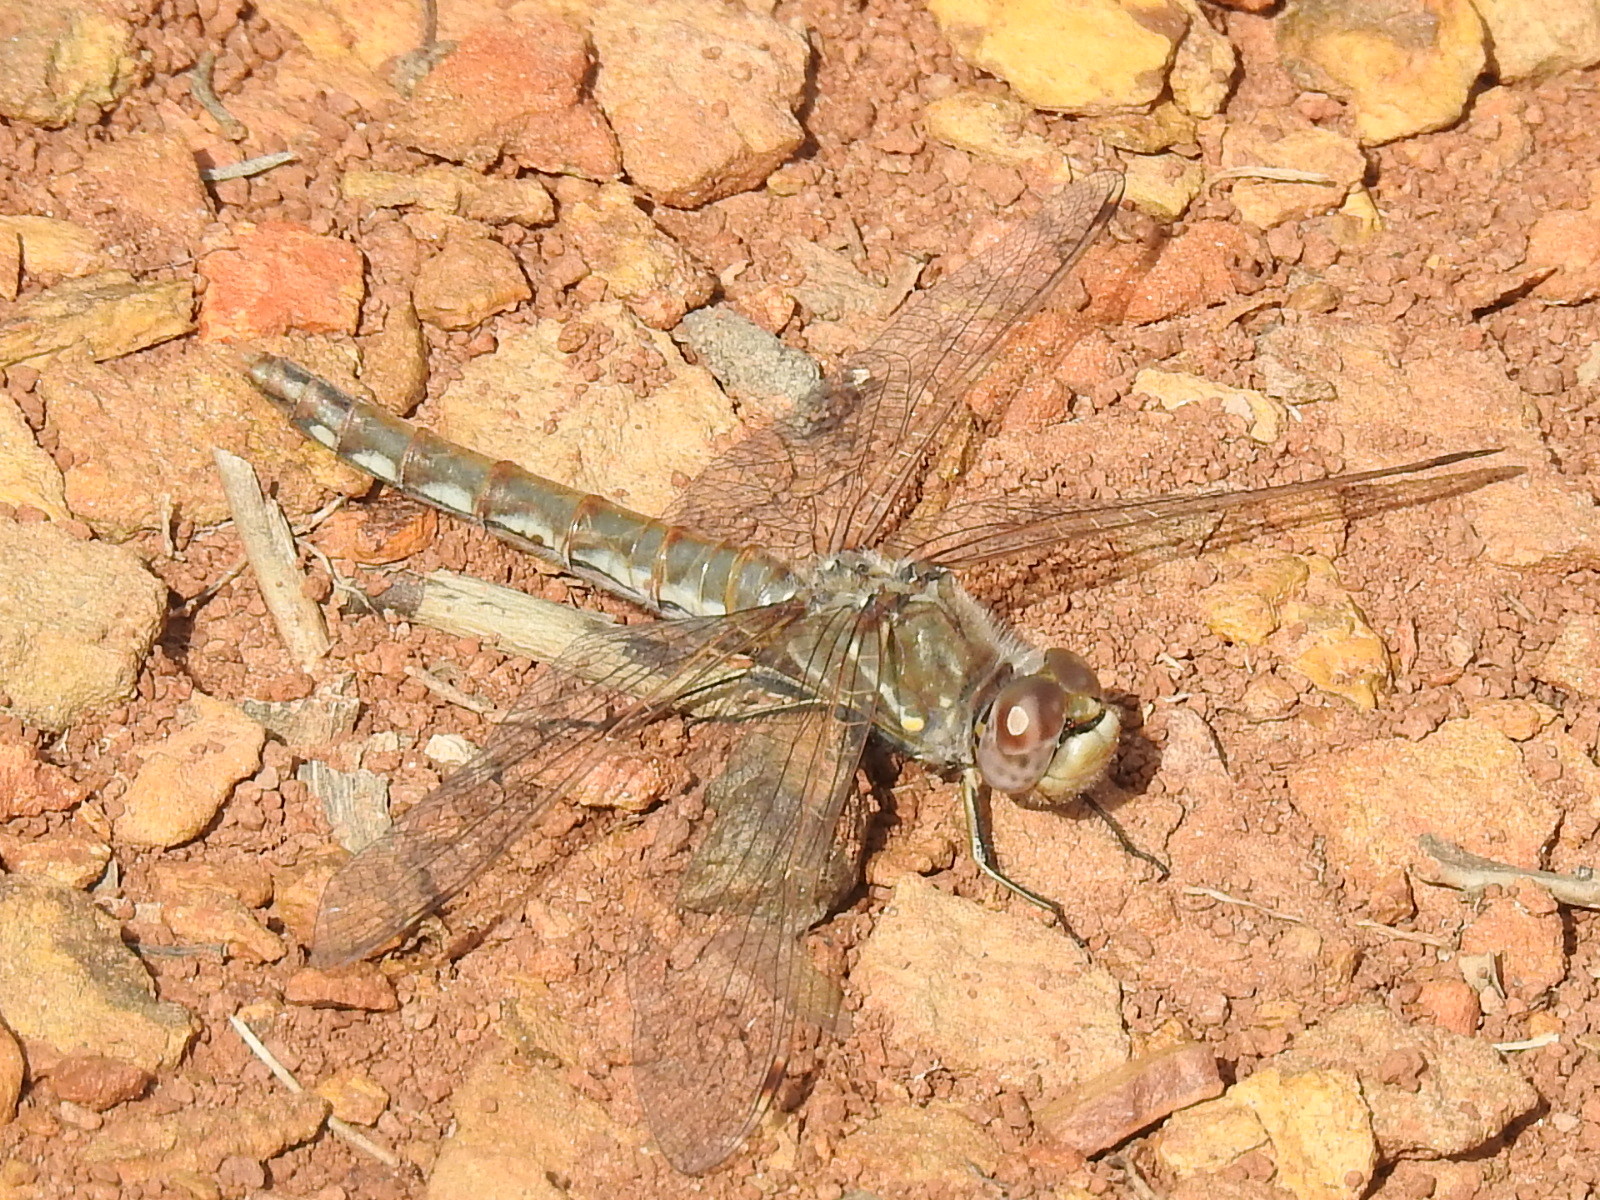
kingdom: Animalia
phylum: Arthropoda
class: Insecta
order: Odonata
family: Libellulidae
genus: Sympetrum
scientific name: Sympetrum corruptum
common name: Variegated meadowhawk
